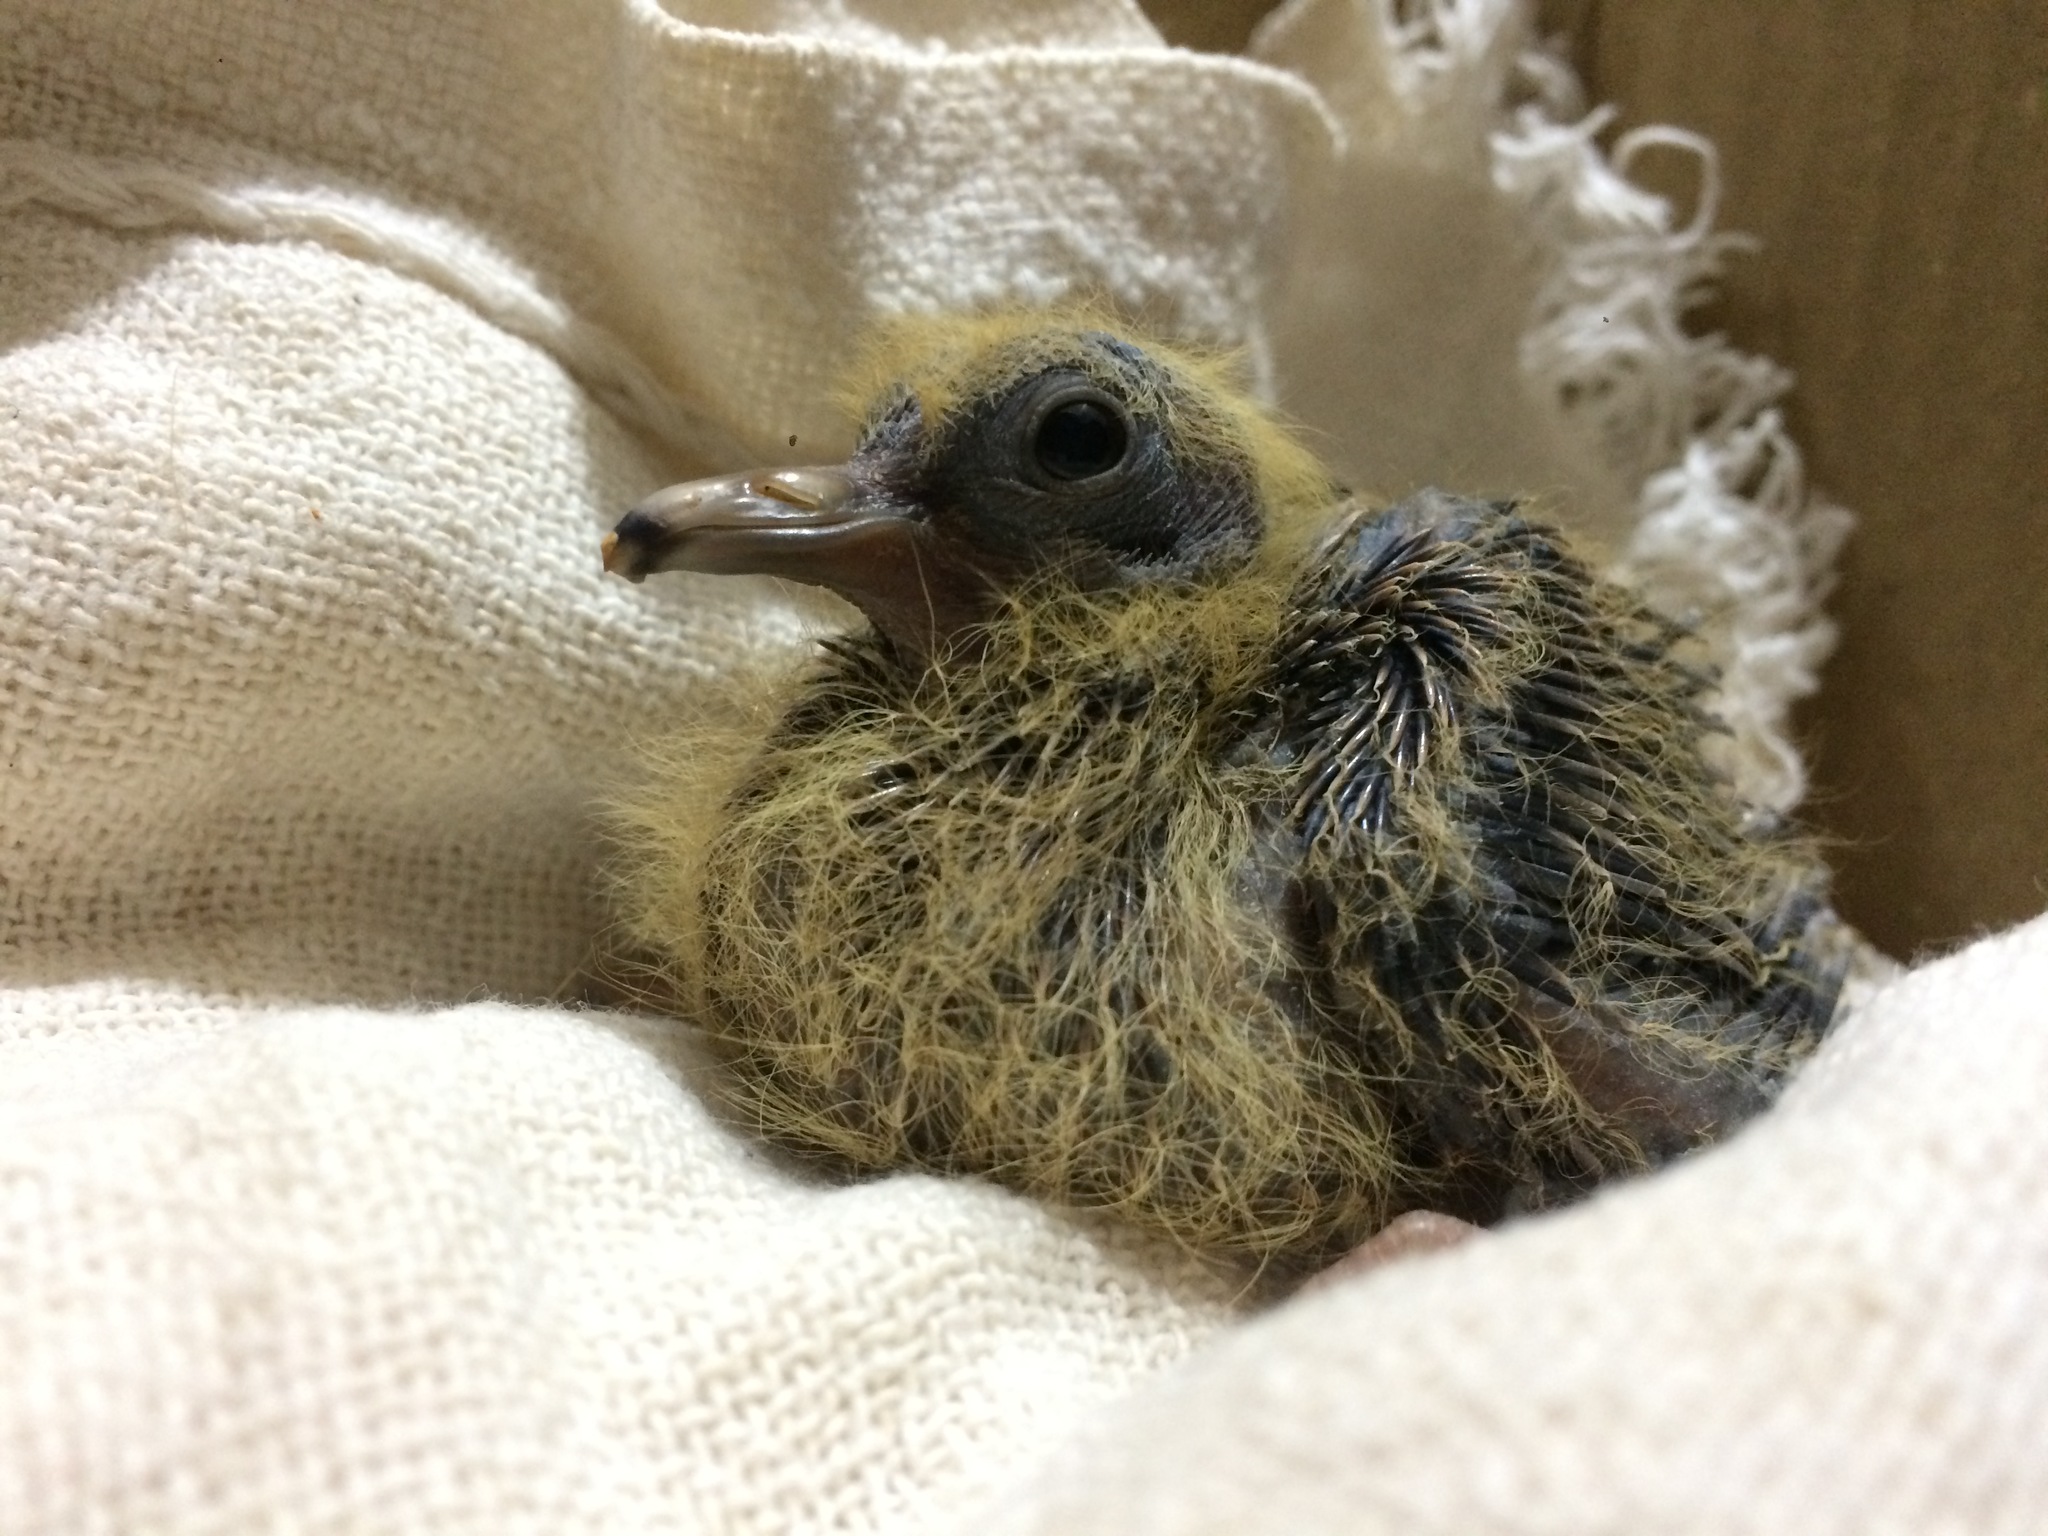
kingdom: Animalia
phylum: Chordata
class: Aves
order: Columbiformes
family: Columbidae
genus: Zenaida
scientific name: Zenaida auriculata
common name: Eared dove
